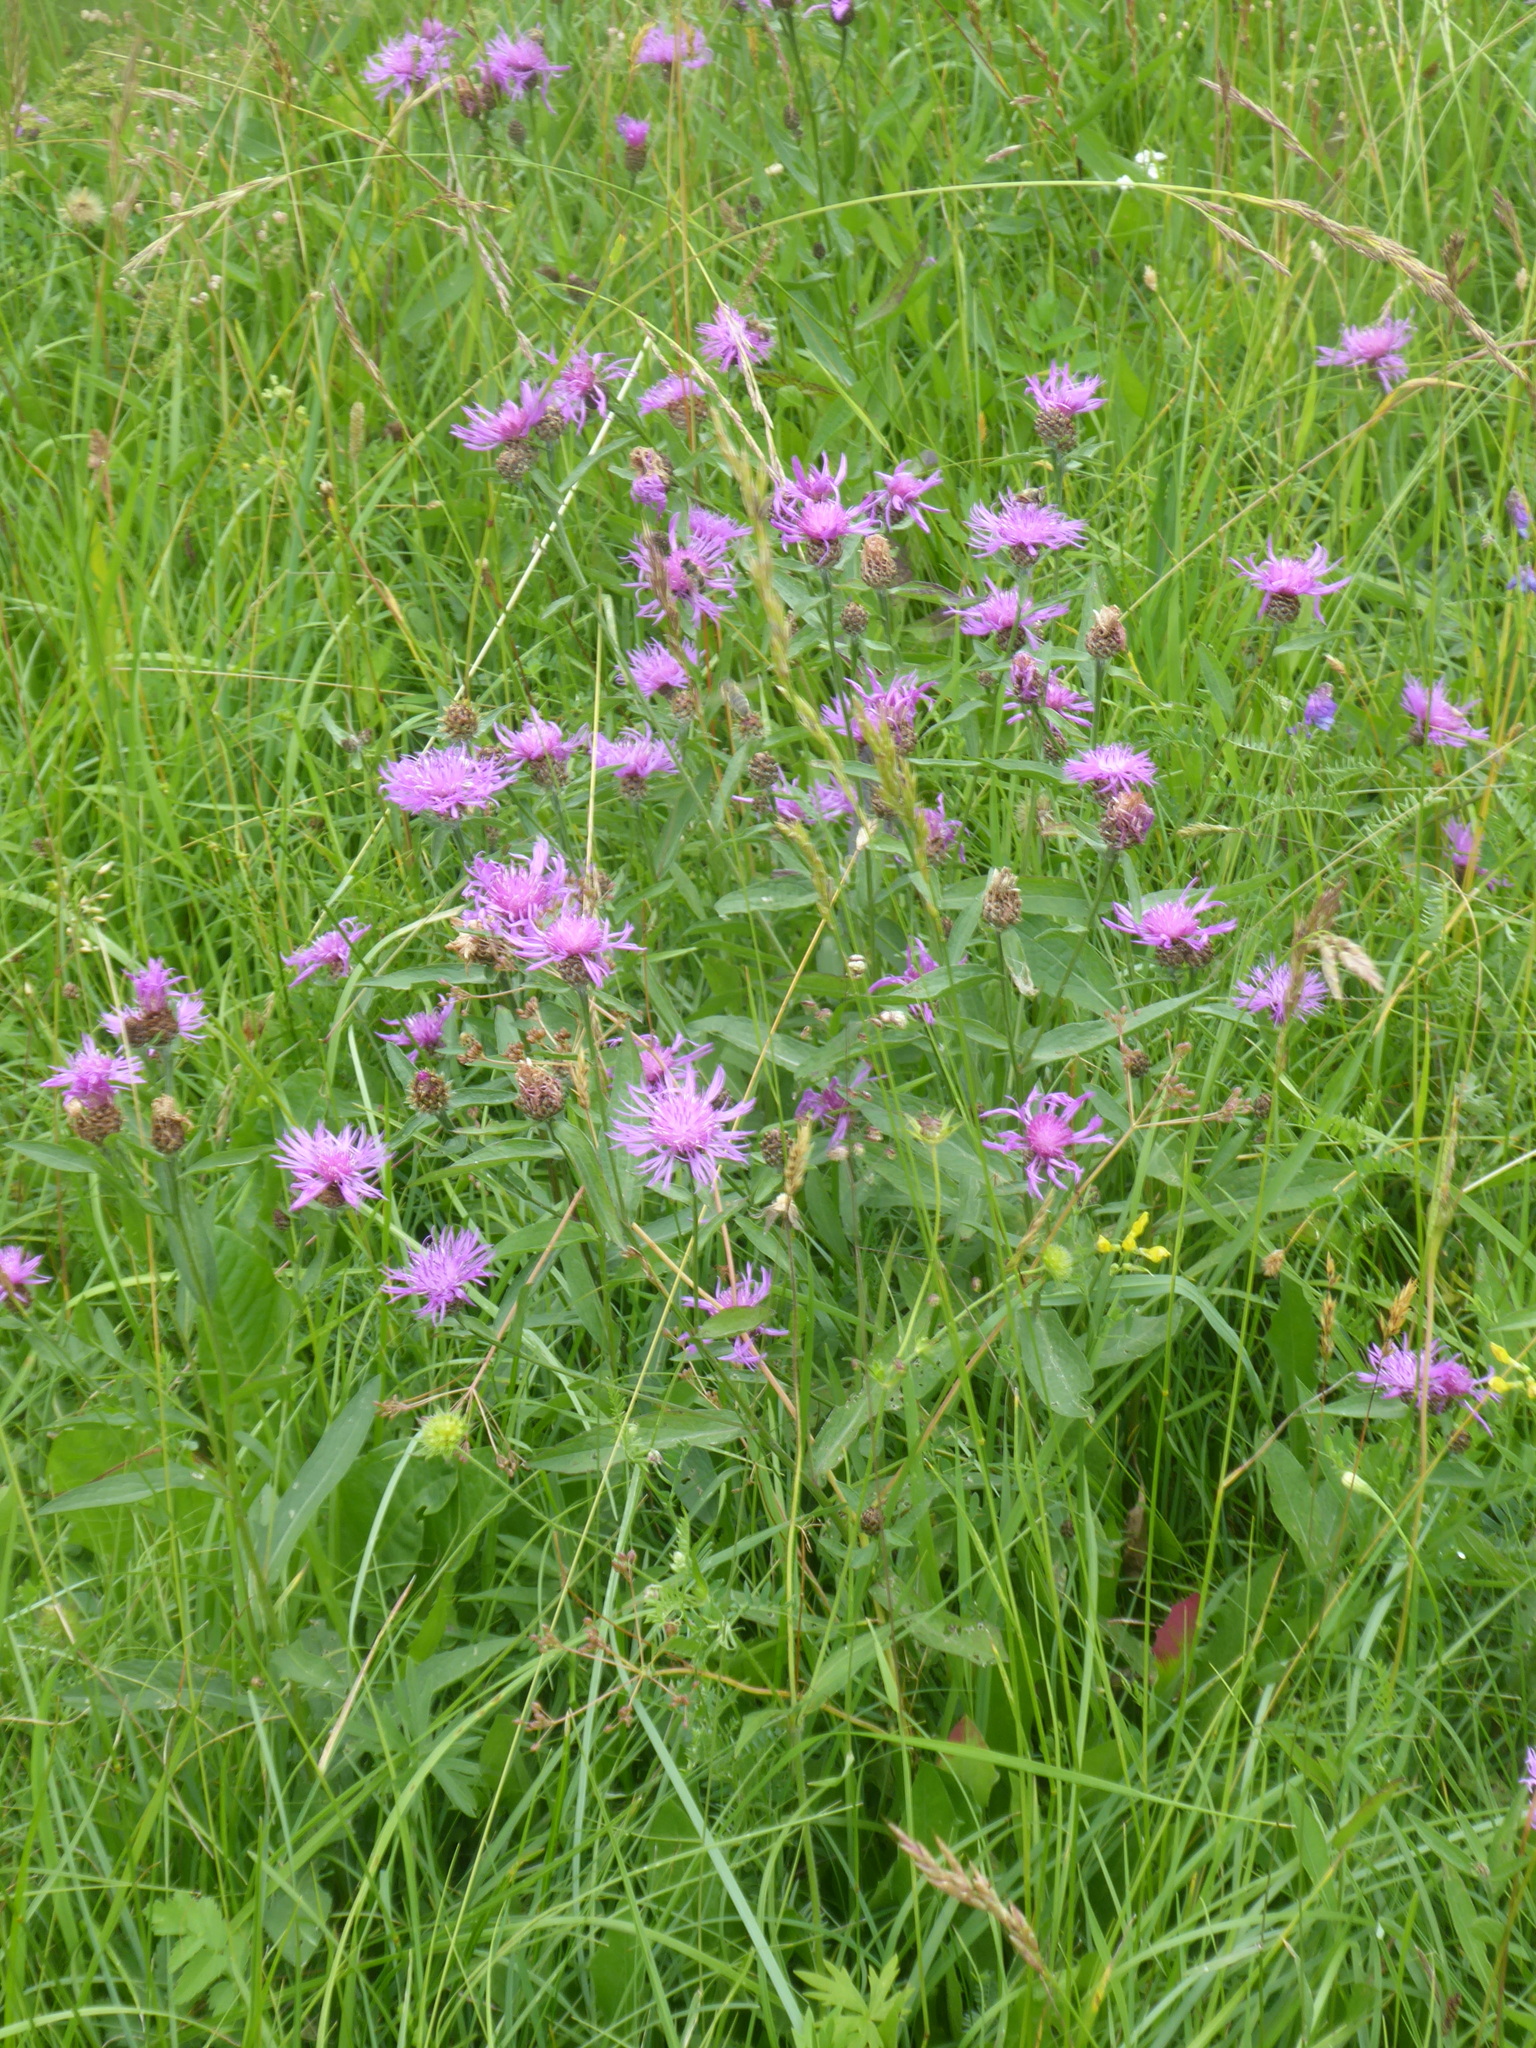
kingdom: Plantae
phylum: Tracheophyta
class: Magnoliopsida
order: Asterales
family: Asteraceae
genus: Centaurea
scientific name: Centaurea jacea
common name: Brown knapweed
